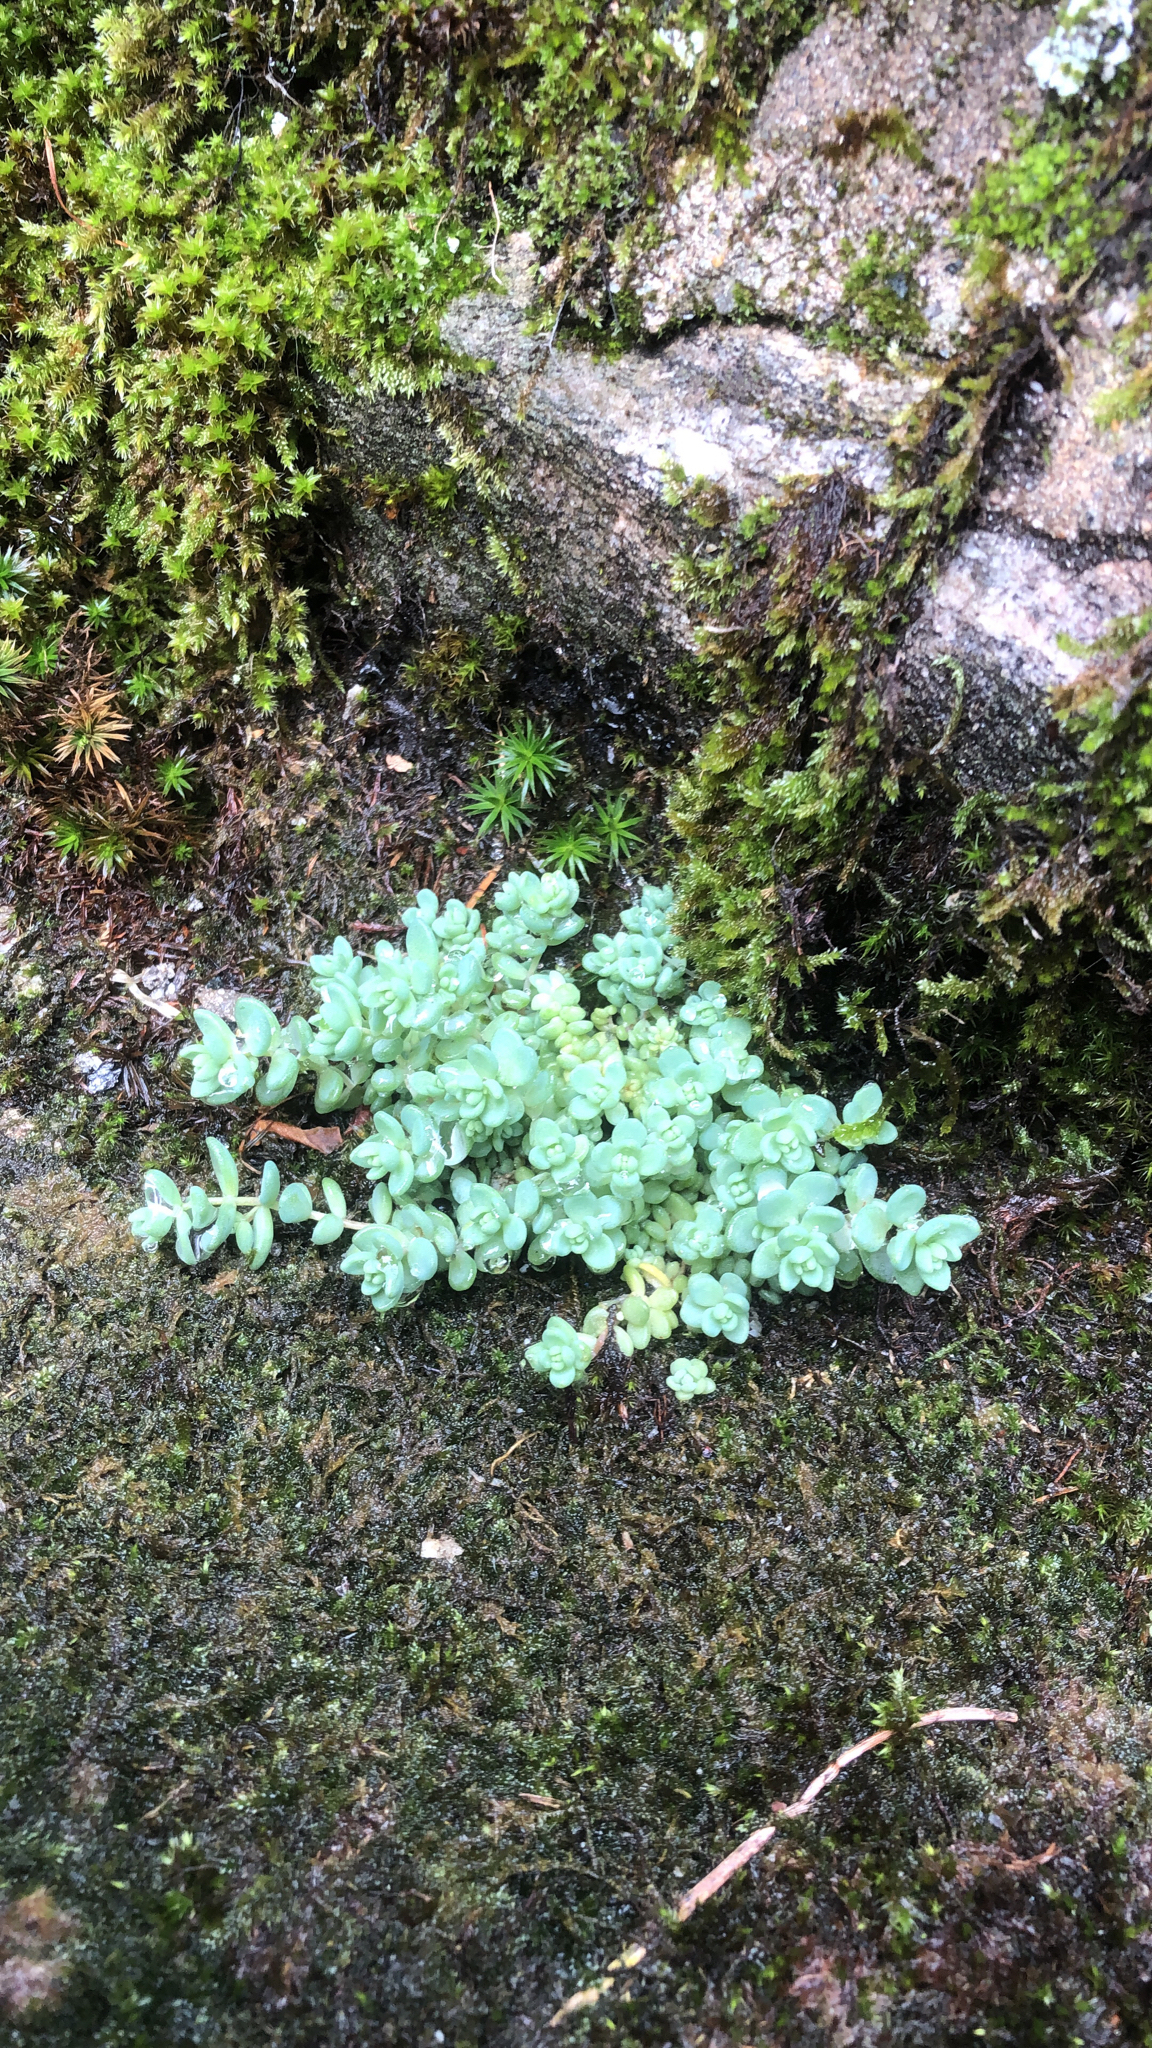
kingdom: Plantae
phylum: Tracheophyta
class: Magnoliopsida
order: Saxifragales
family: Crassulaceae
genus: Sedum
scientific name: Sedum dasyphyllum
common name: Thick-leaf stonecrop
